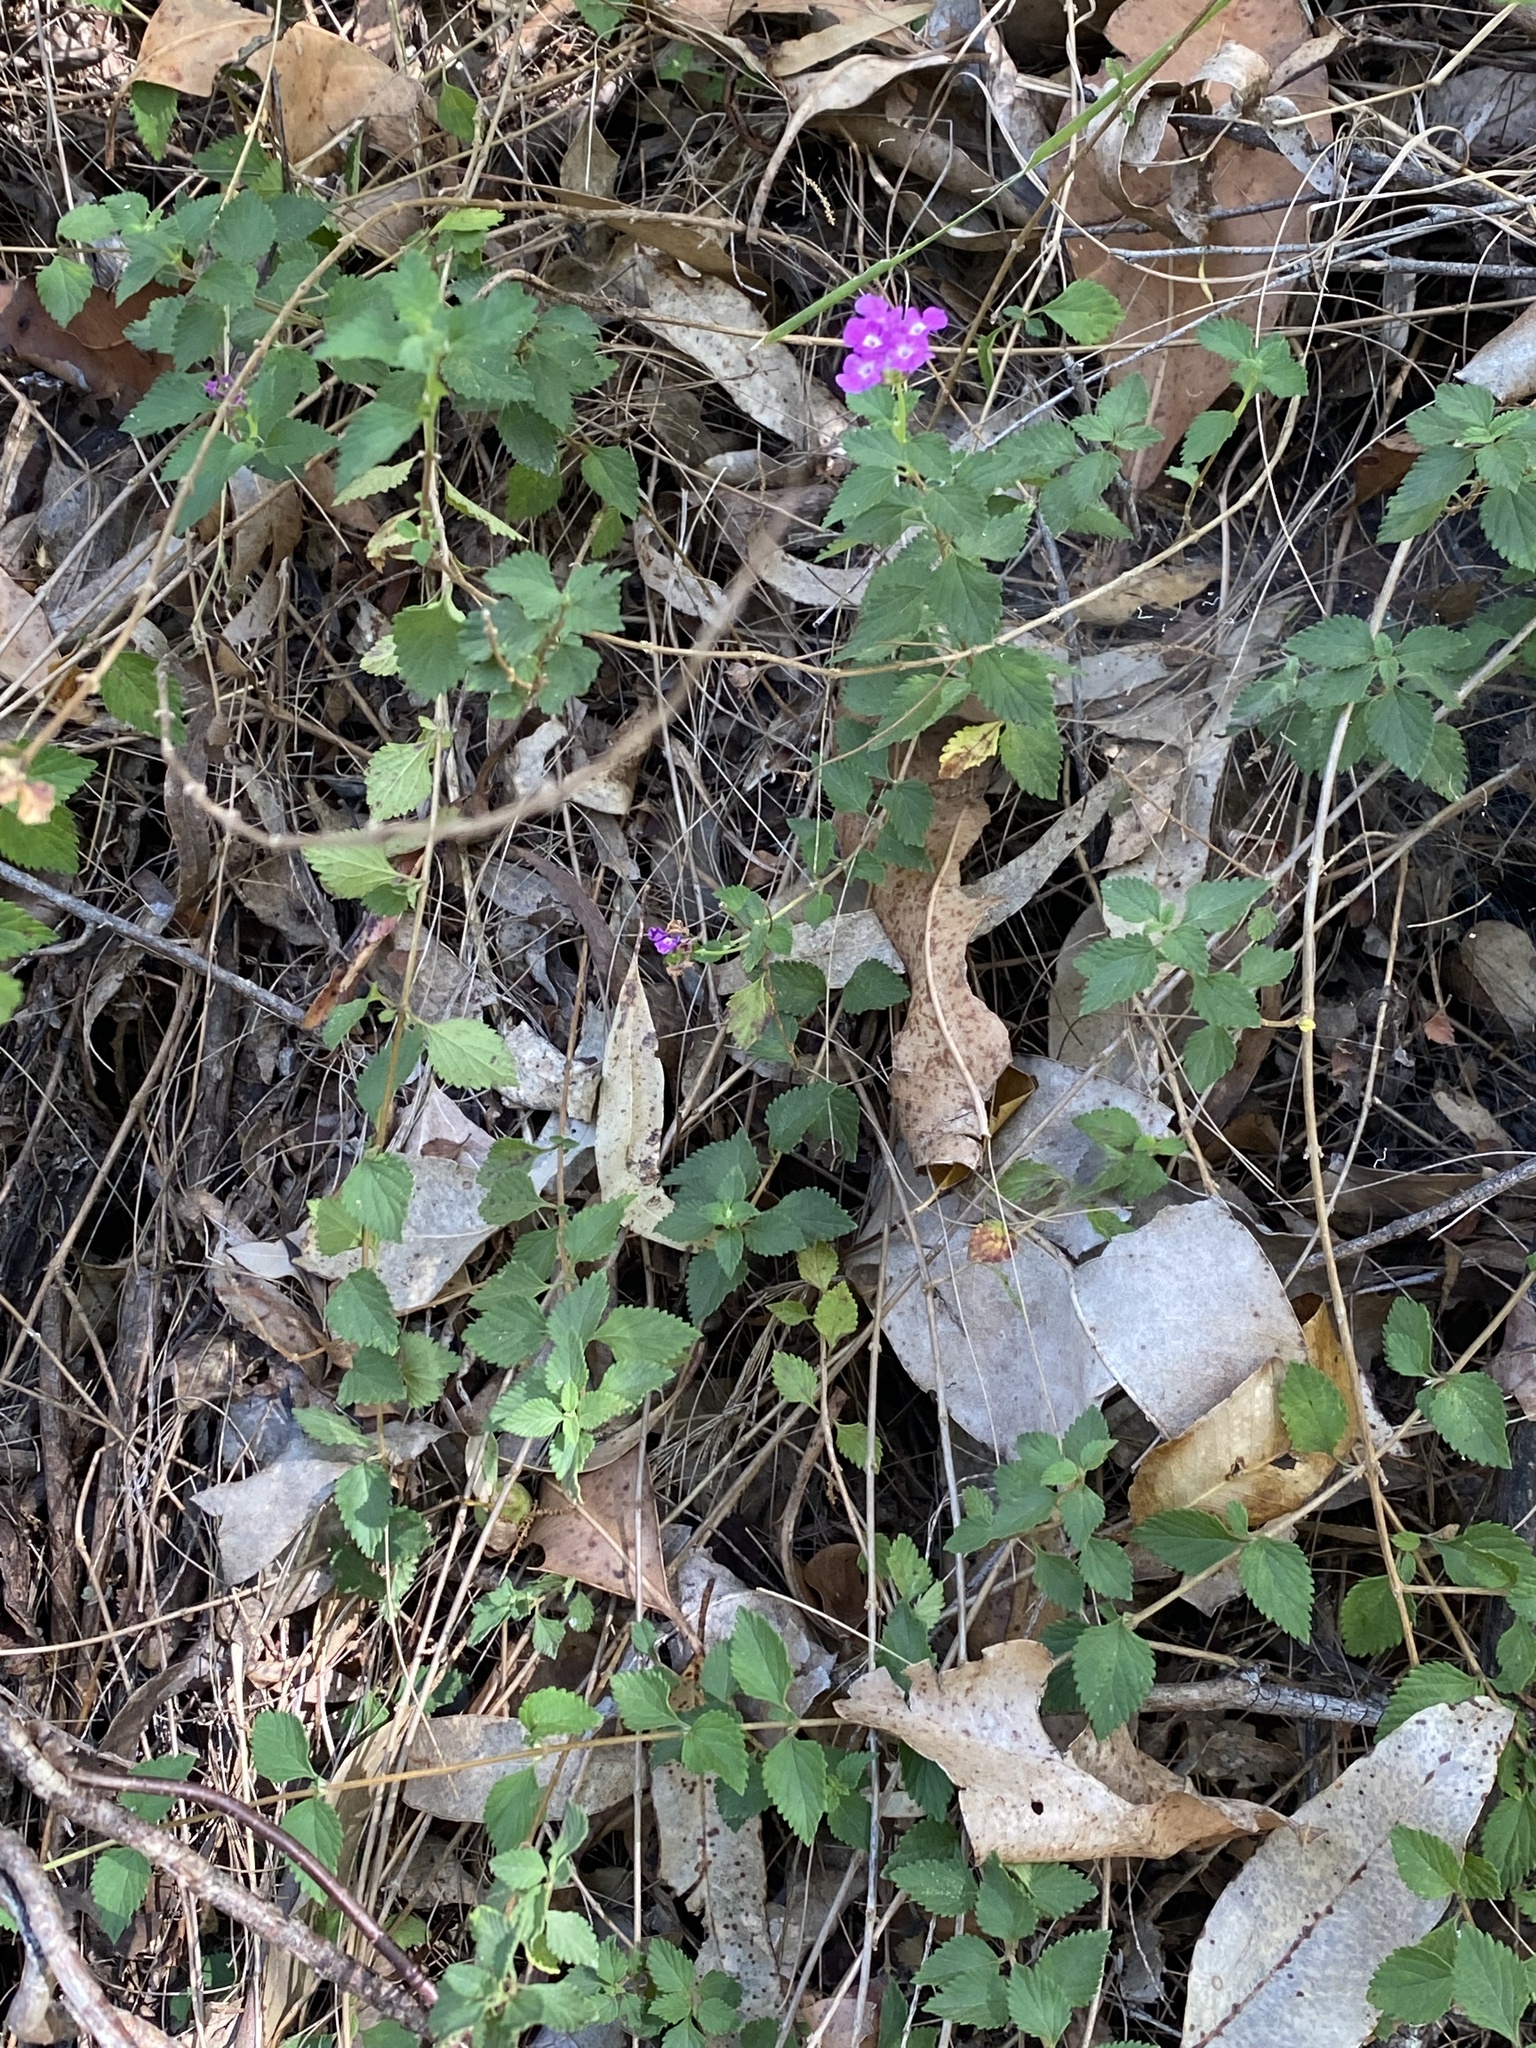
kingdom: Plantae
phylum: Tracheophyta
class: Magnoliopsida
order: Lamiales
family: Verbenaceae
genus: Lantana
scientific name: Lantana montevidensis
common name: Trailing shrubverbena
